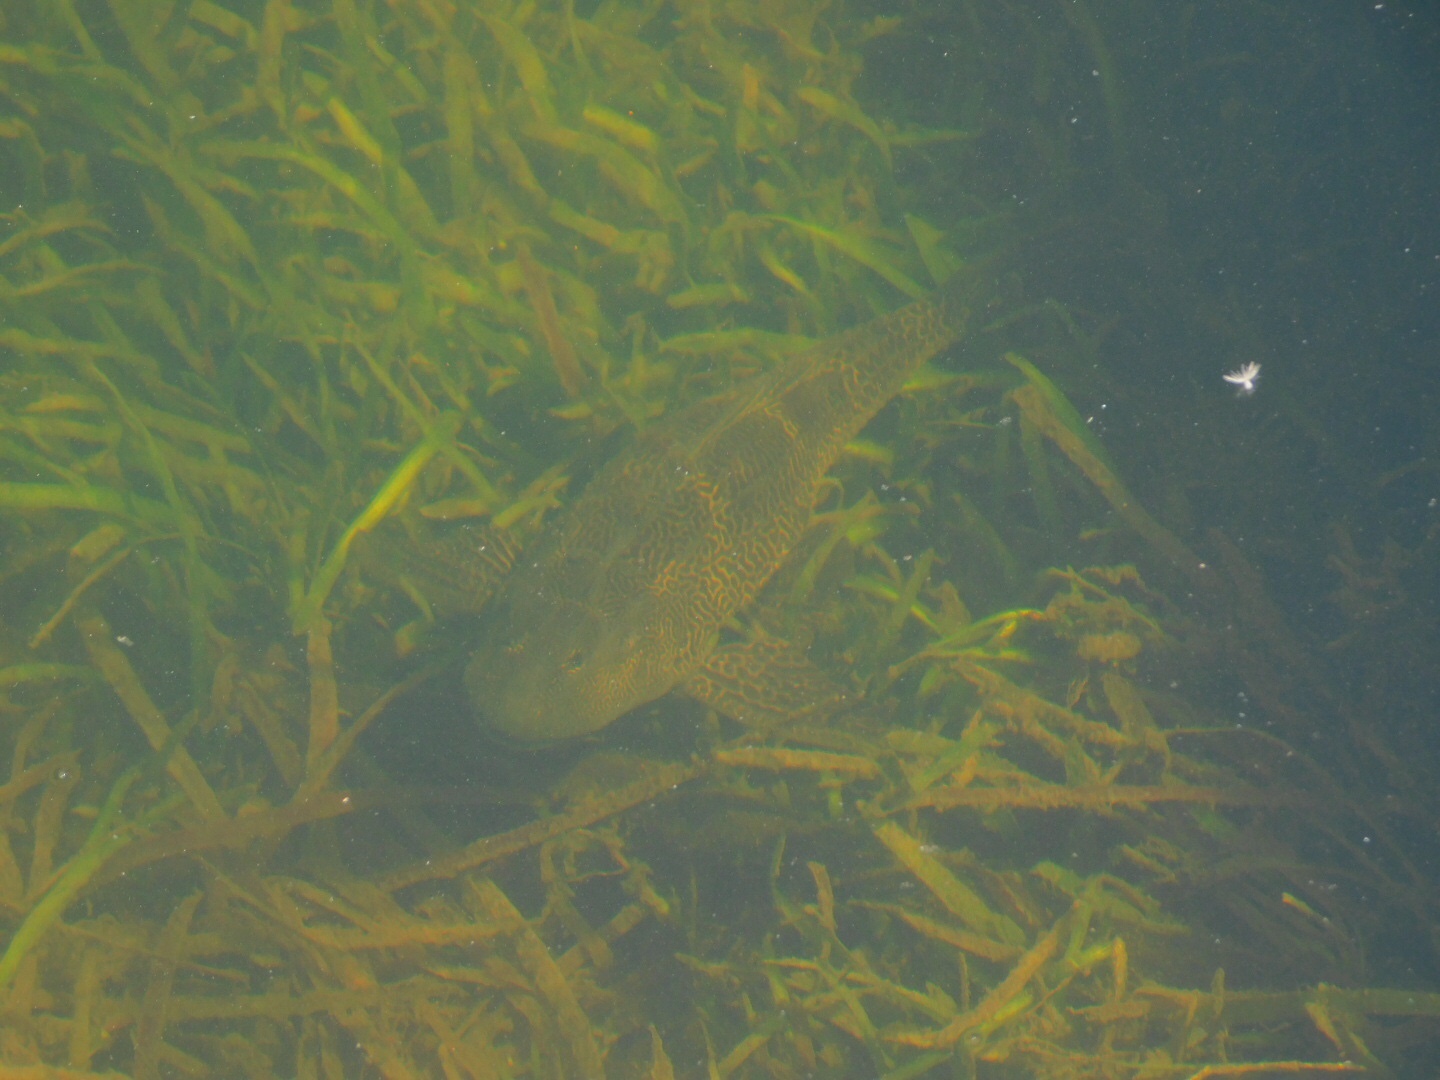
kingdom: Animalia
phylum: Chordata
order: Siluriformes
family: Loricariidae
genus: Pterygoplichthys
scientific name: Pterygoplichthys
